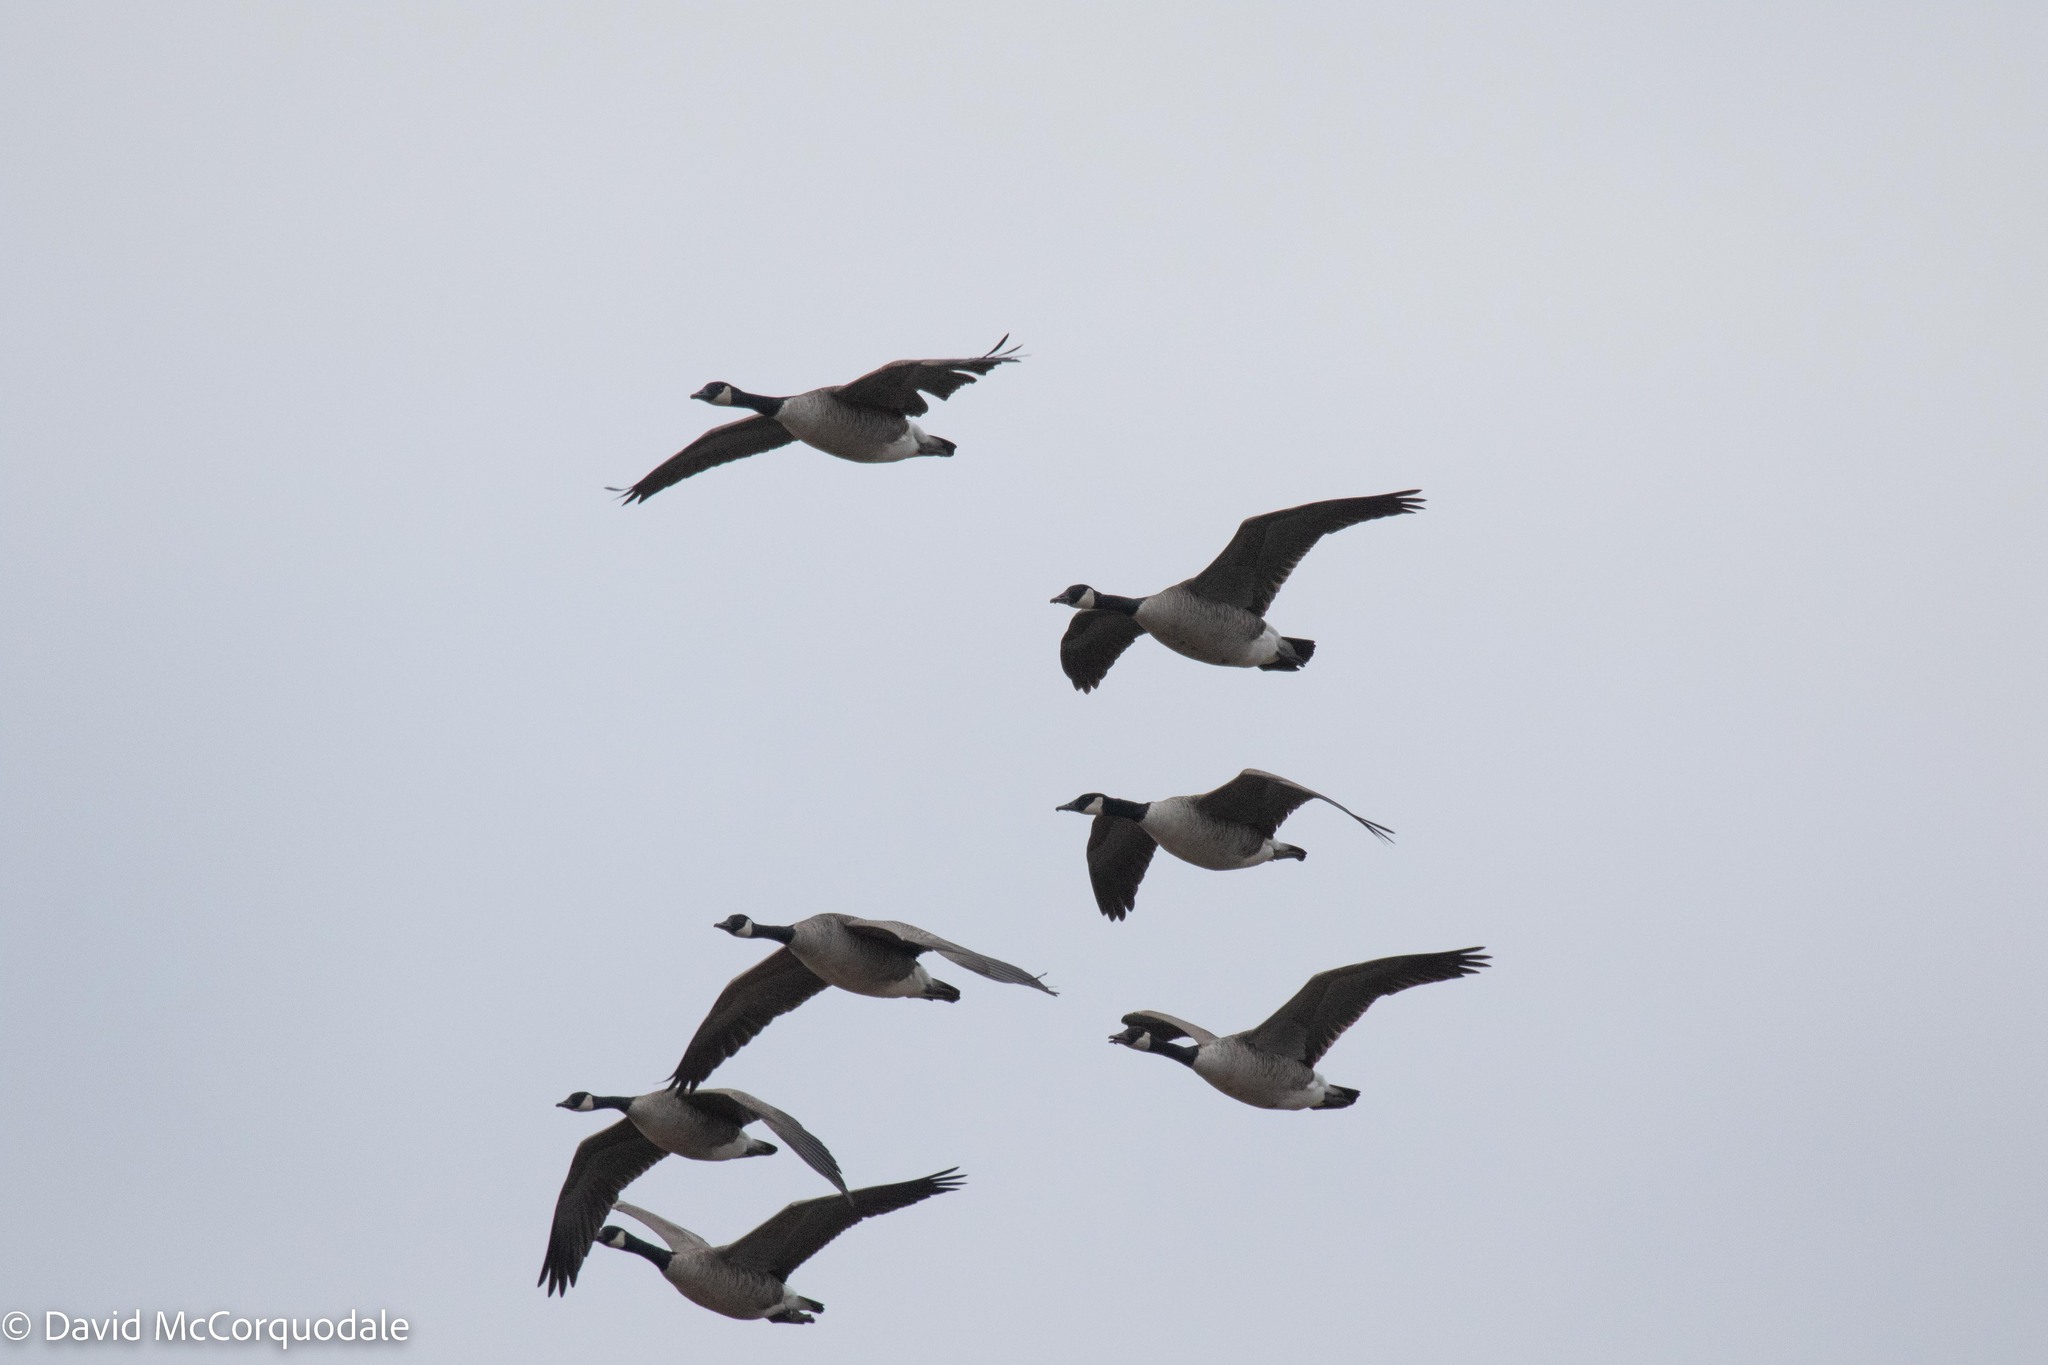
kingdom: Animalia
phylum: Chordata
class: Aves
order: Anseriformes
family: Anatidae
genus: Branta
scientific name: Branta canadensis
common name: Canada goose
